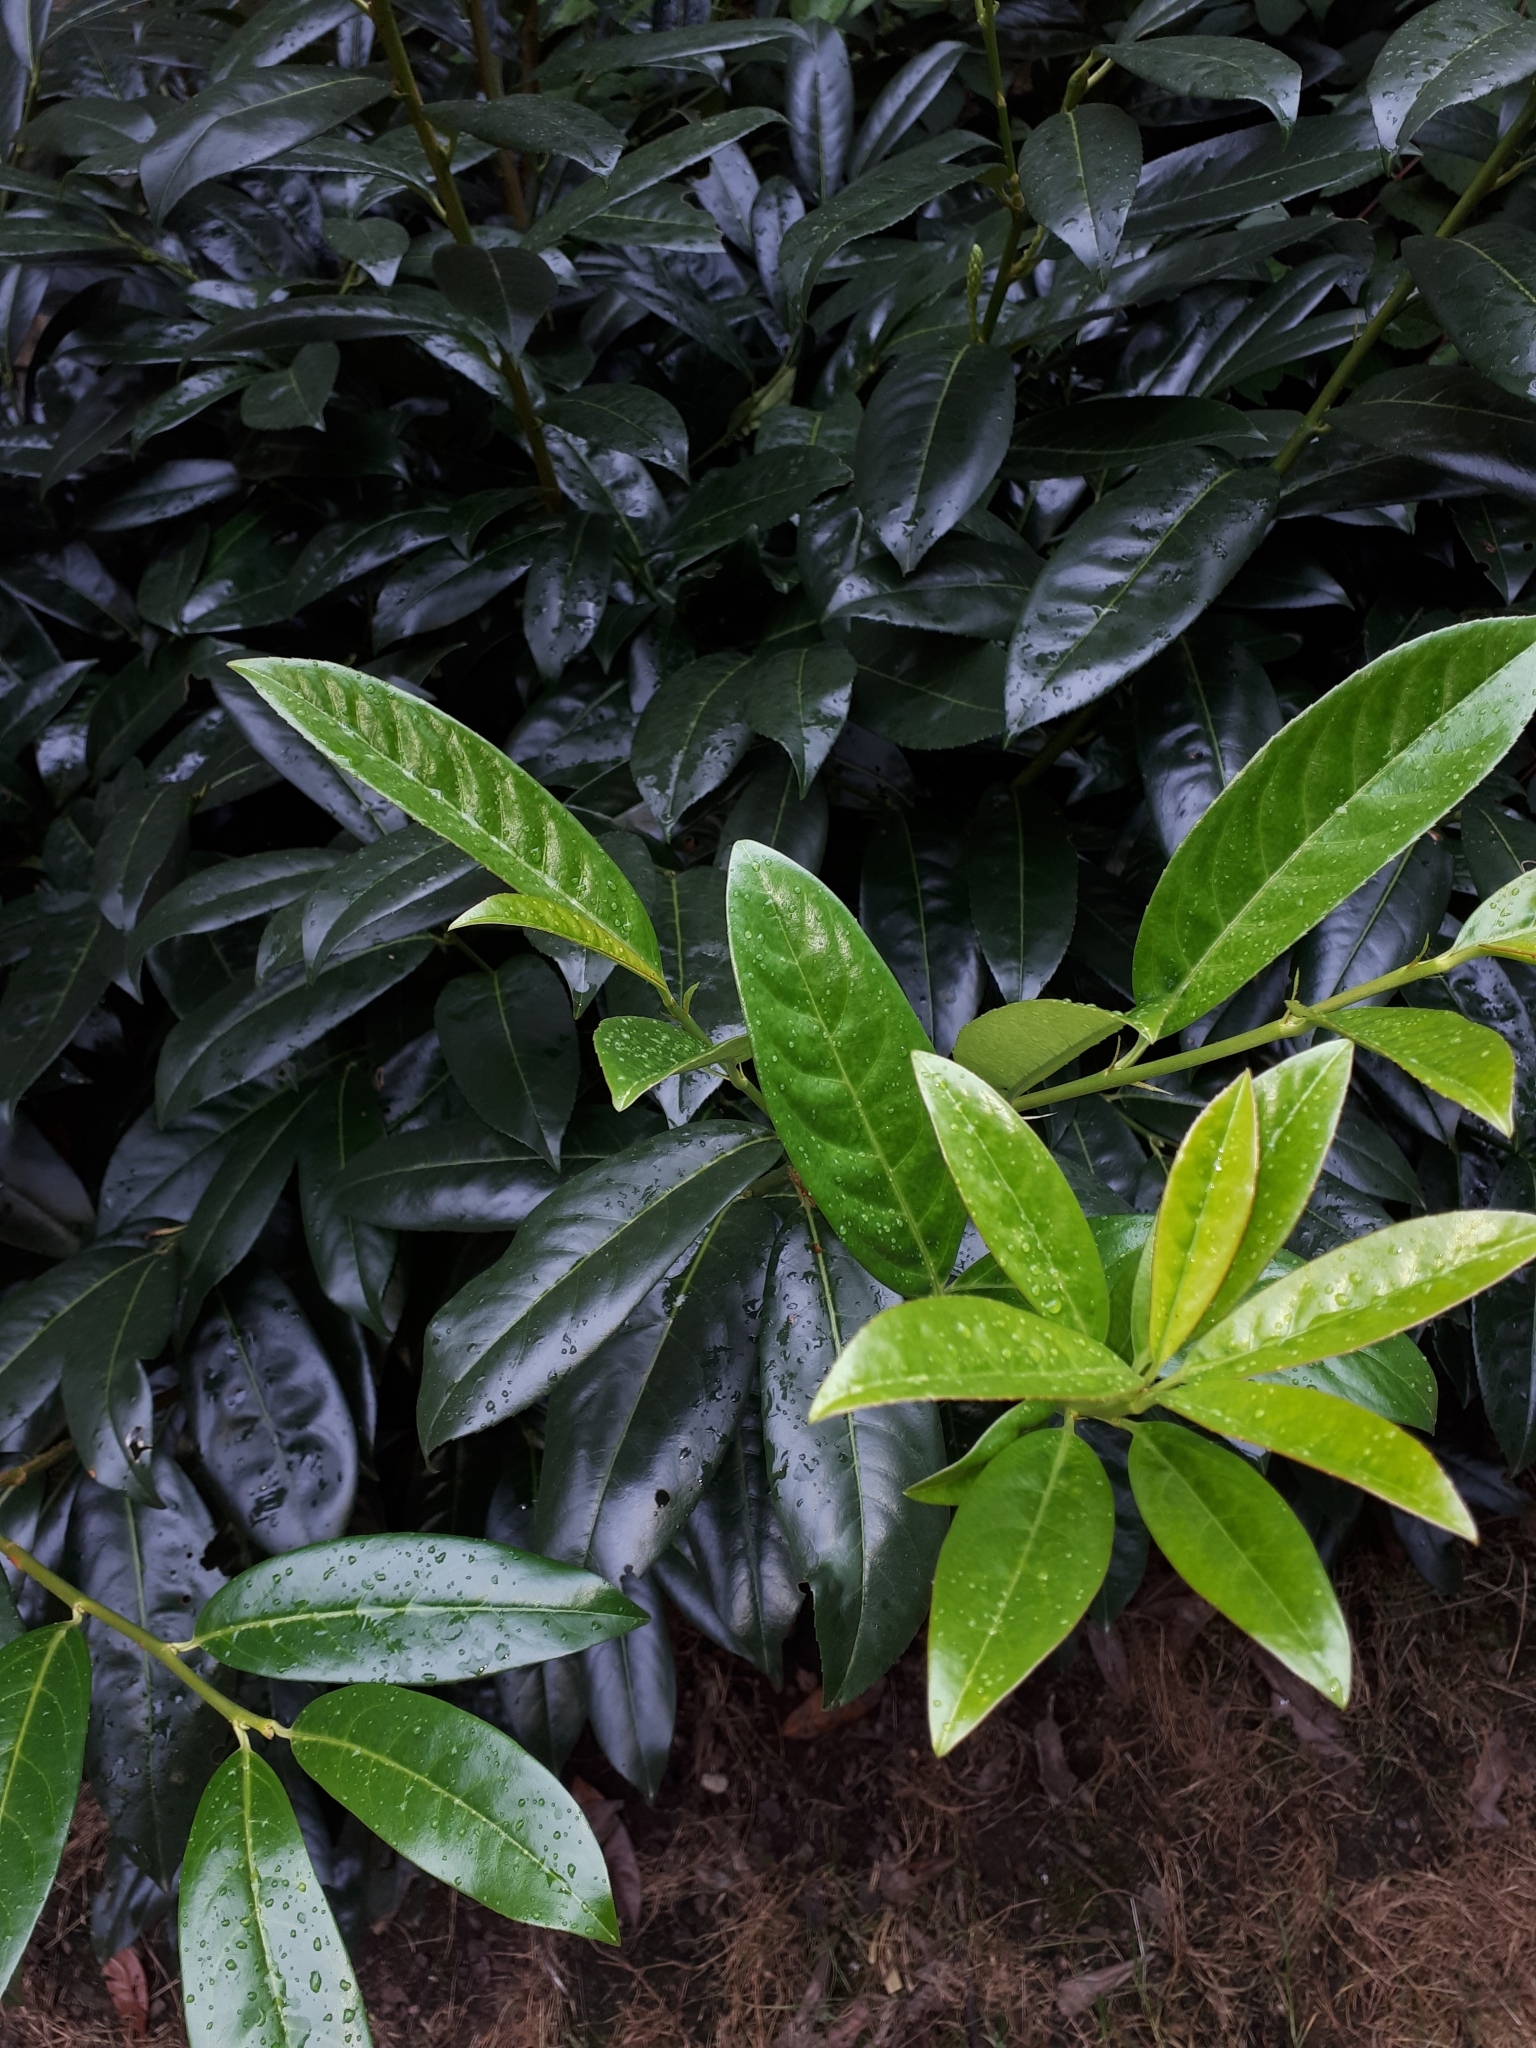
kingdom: Plantae
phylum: Tracheophyta
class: Magnoliopsida
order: Rosales
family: Rosaceae
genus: Prunus
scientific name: Prunus laurocerasus
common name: Cherry laurel
